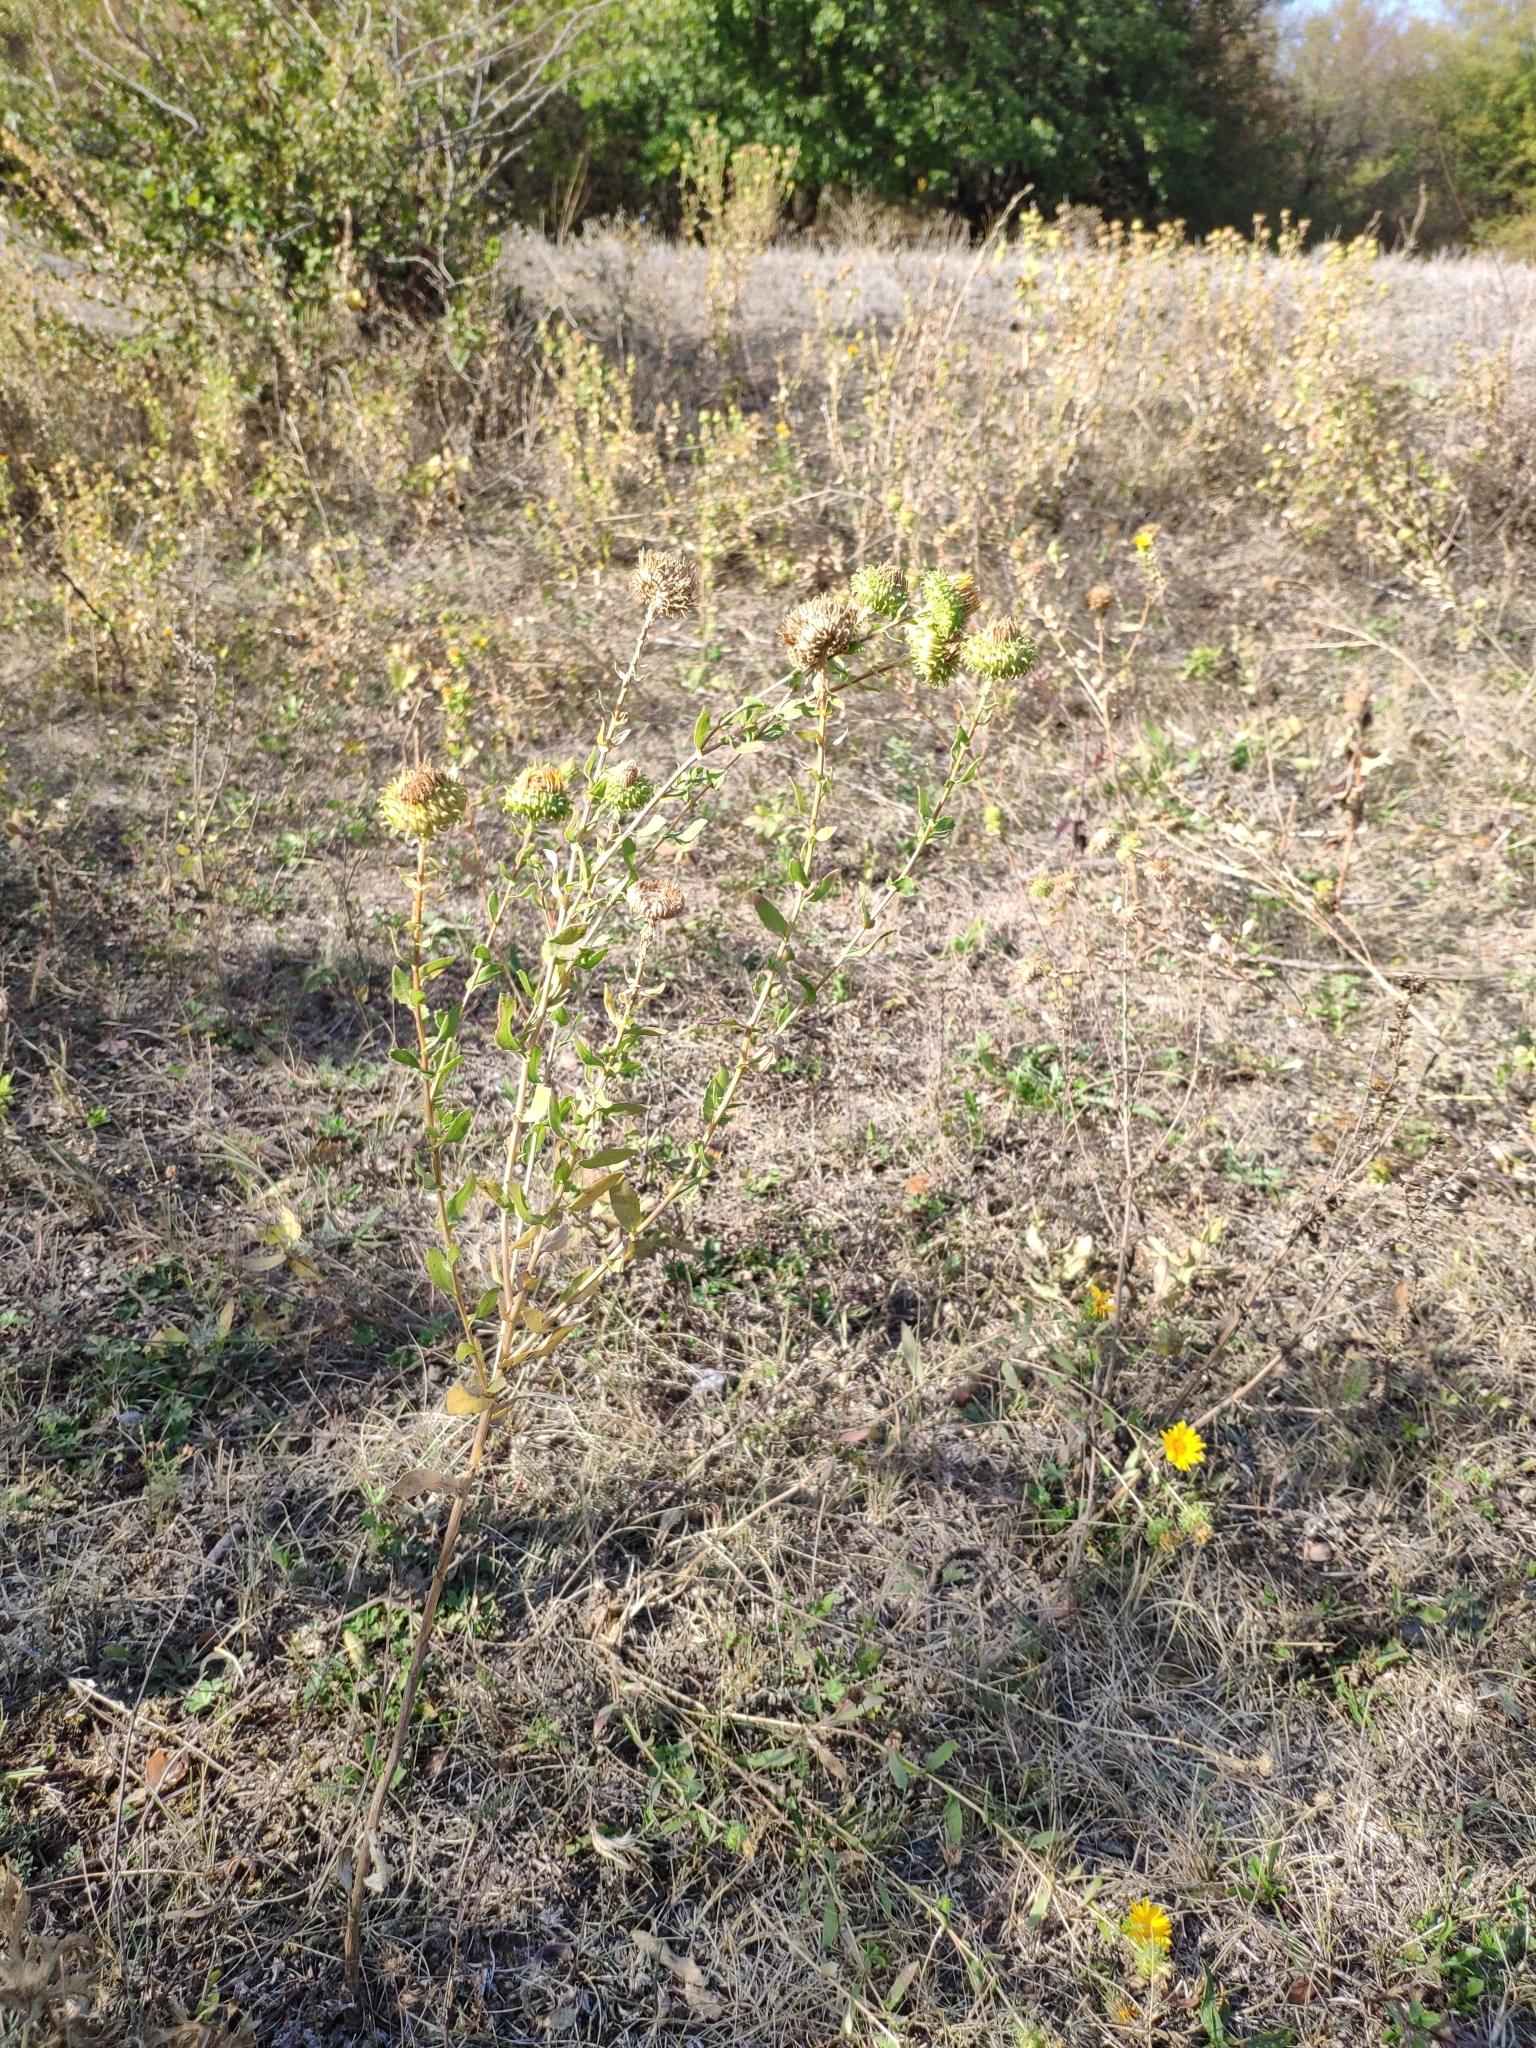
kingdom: Plantae
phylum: Tracheophyta
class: Magnoliopsida
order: Asterales
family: Asteraceae
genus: Grindelia
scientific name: Grindelia squarrosa
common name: Curly-cup gumweed
